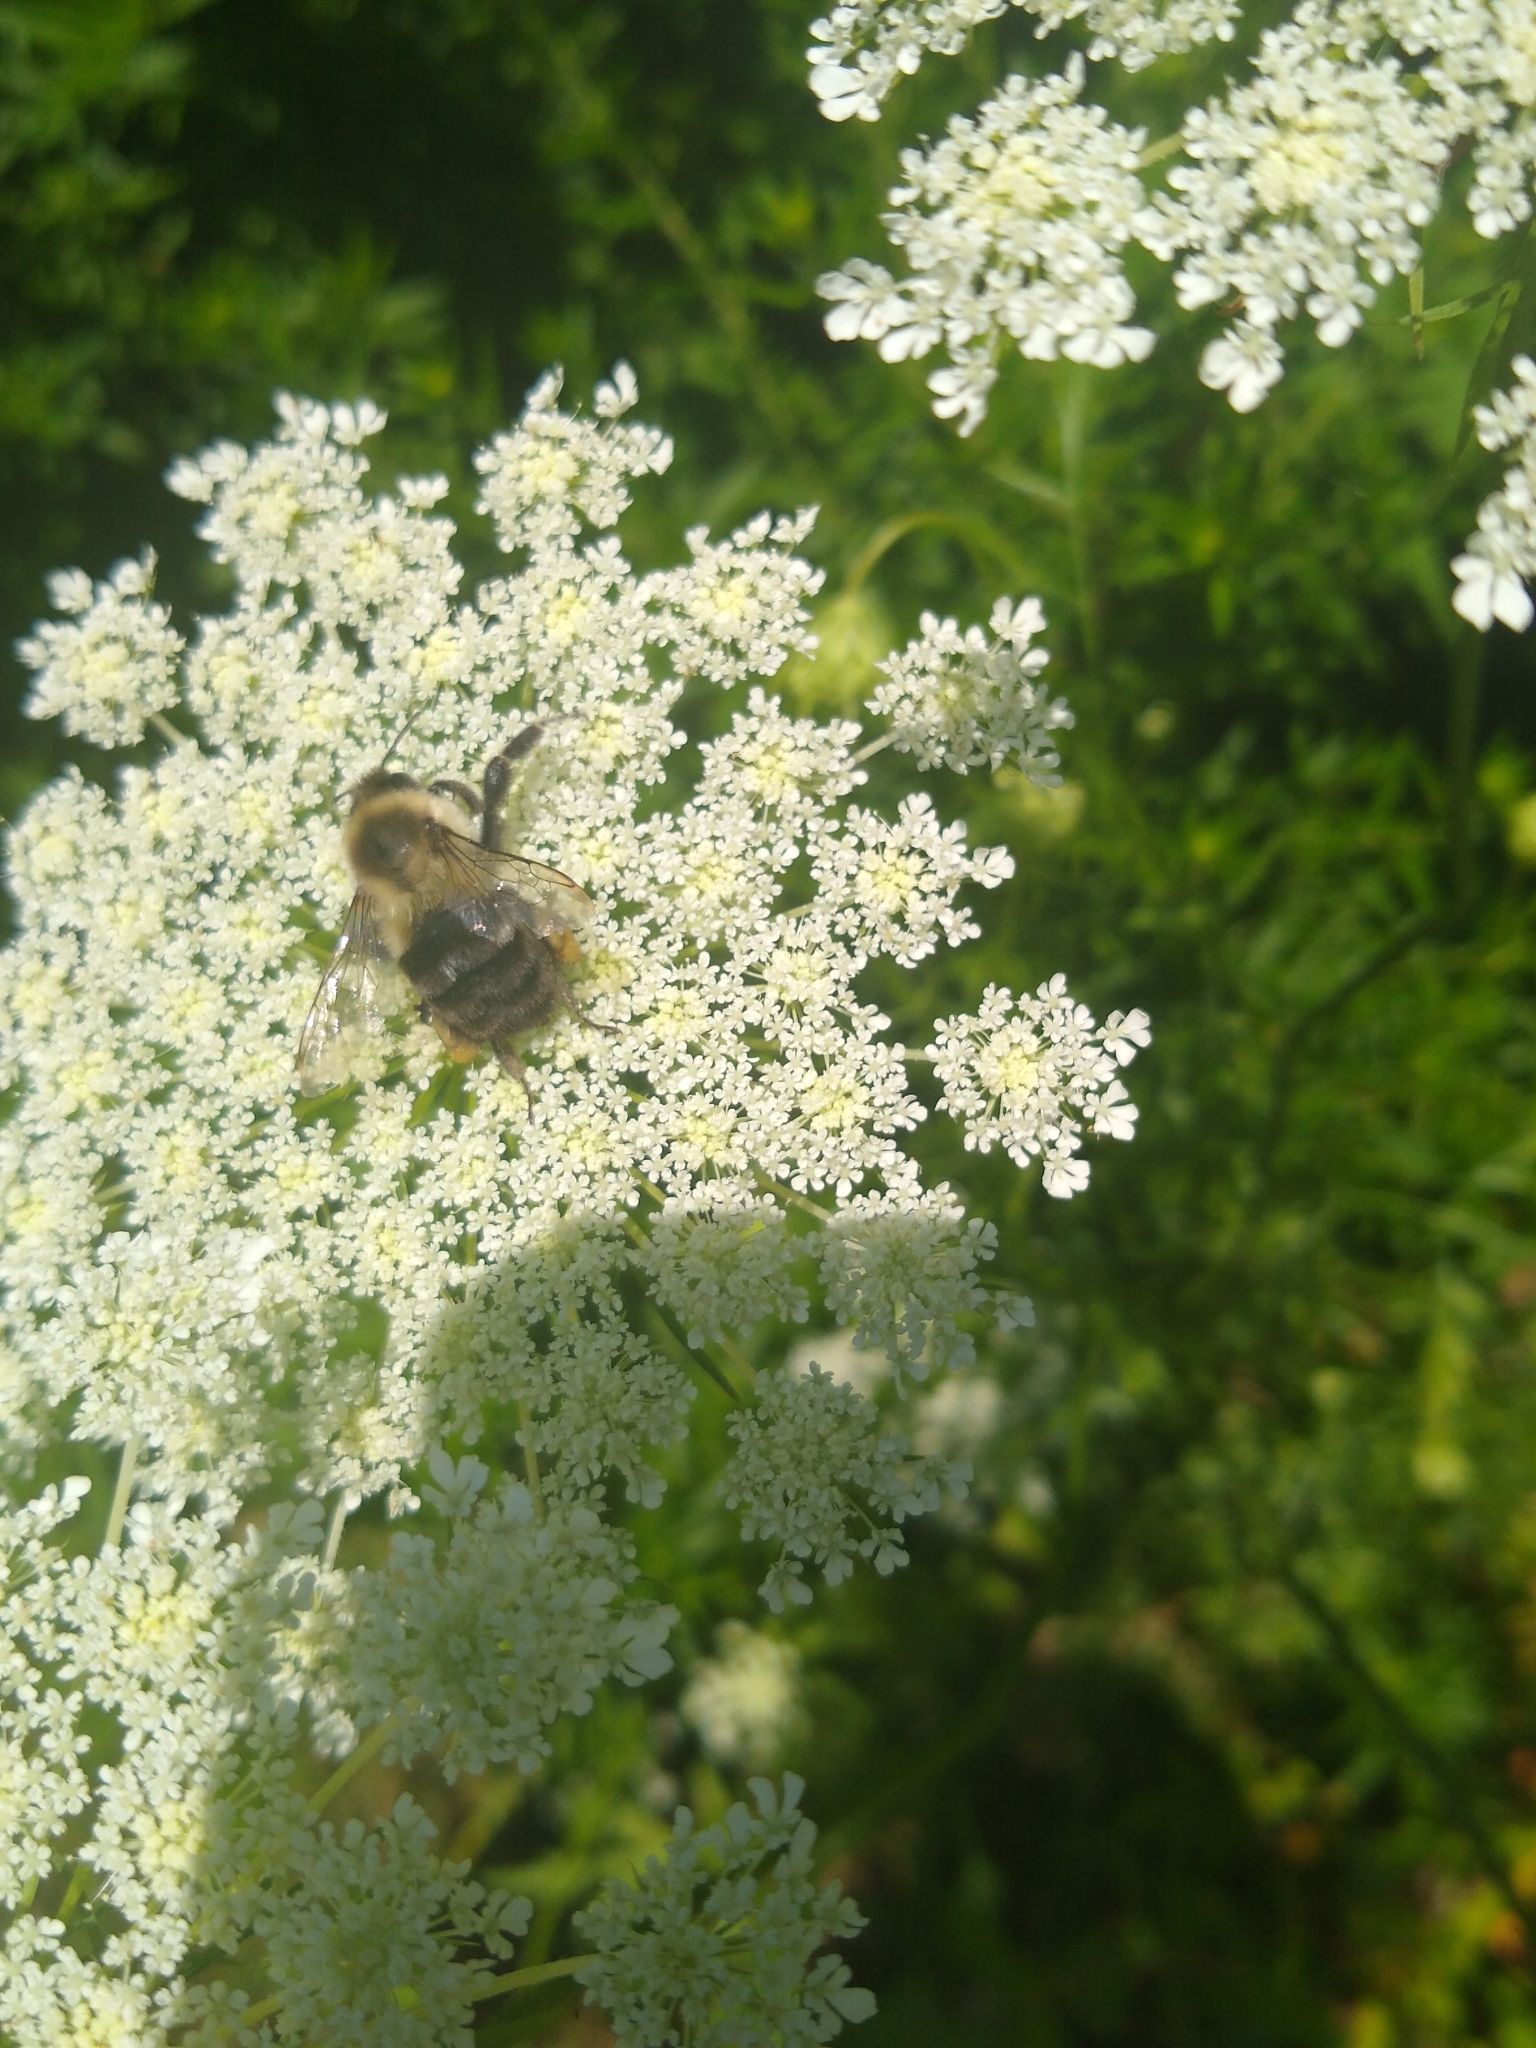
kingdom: Animalia
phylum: Arthropoda
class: Insecta
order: Hymenoptera
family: Apidae
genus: Bombus
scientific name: Bombus impatiens
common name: Common eastern bumble bee
